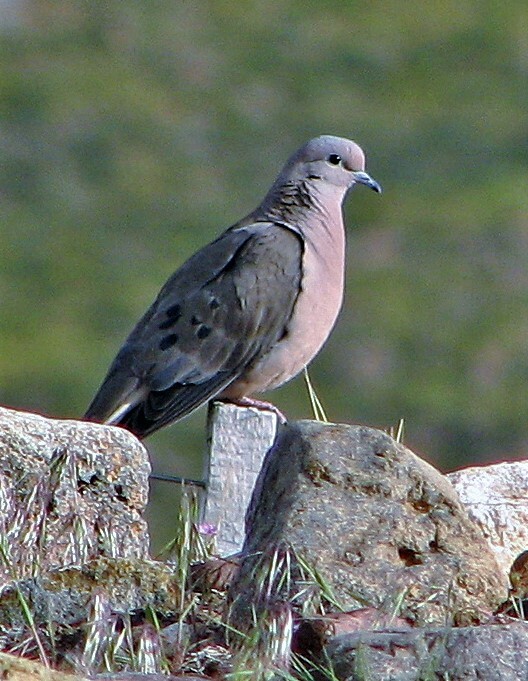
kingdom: Animalia
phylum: Chordata
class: Aves
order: Columbiformes
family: Columbidae
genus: Zenaida
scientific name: Zenaida auriculata
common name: Eared dove
